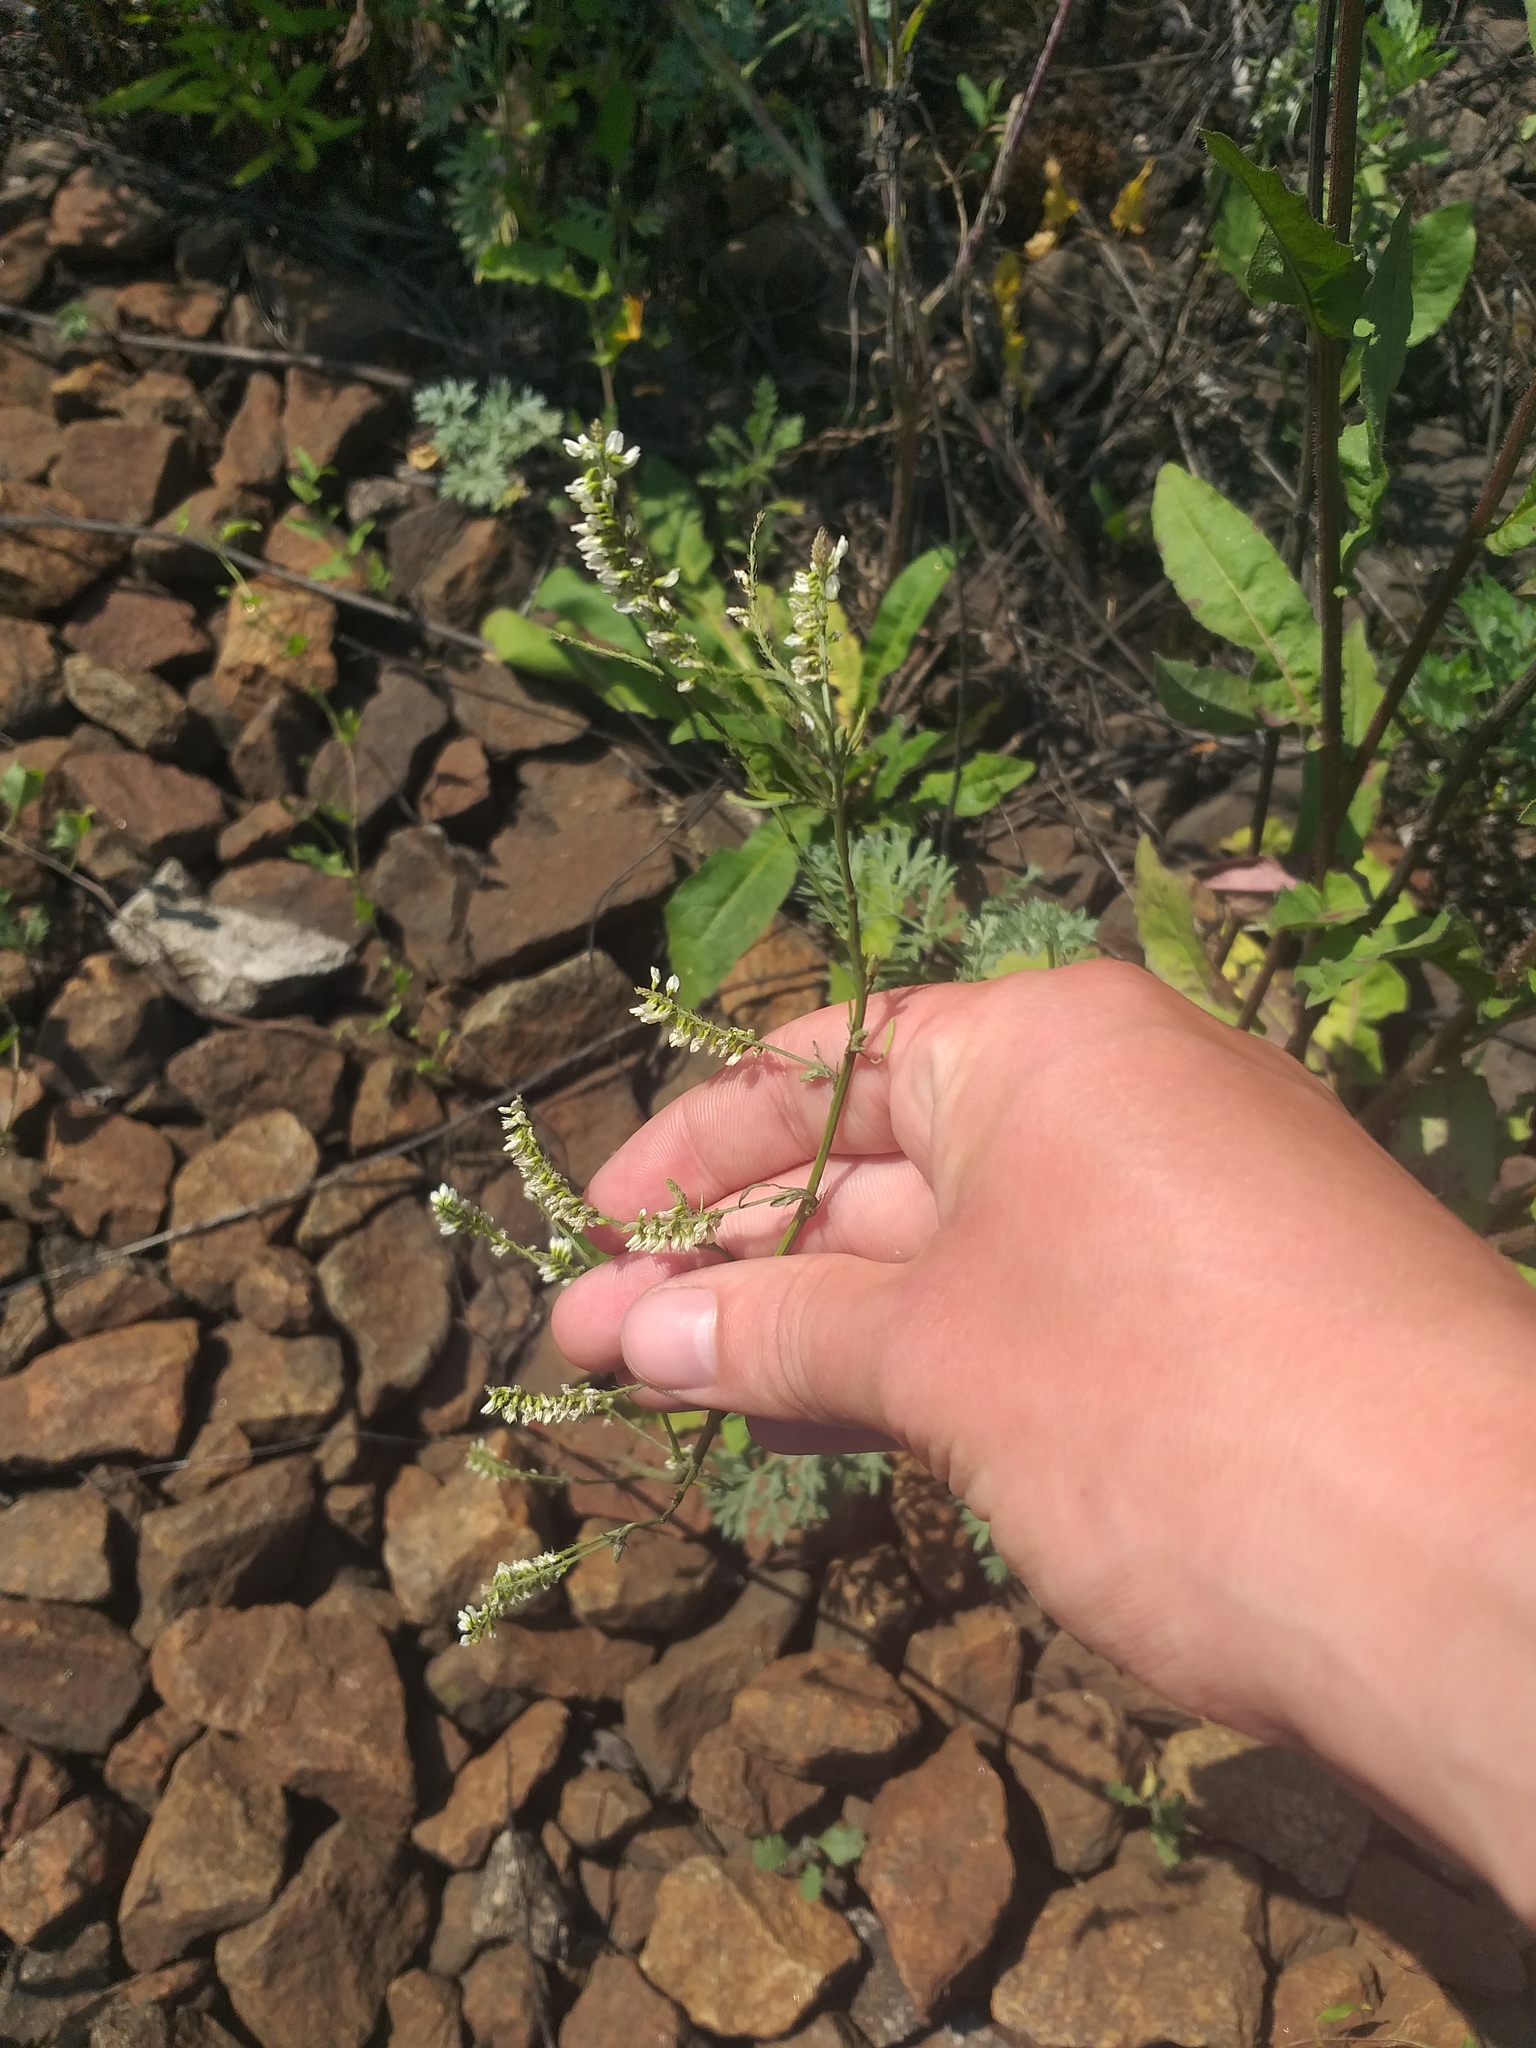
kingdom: Plantae
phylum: Tracheophyta
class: Magnoliopsida
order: Fabales
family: Fabaceae
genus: Melilotus
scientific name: Melilotus albus
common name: White melilot
